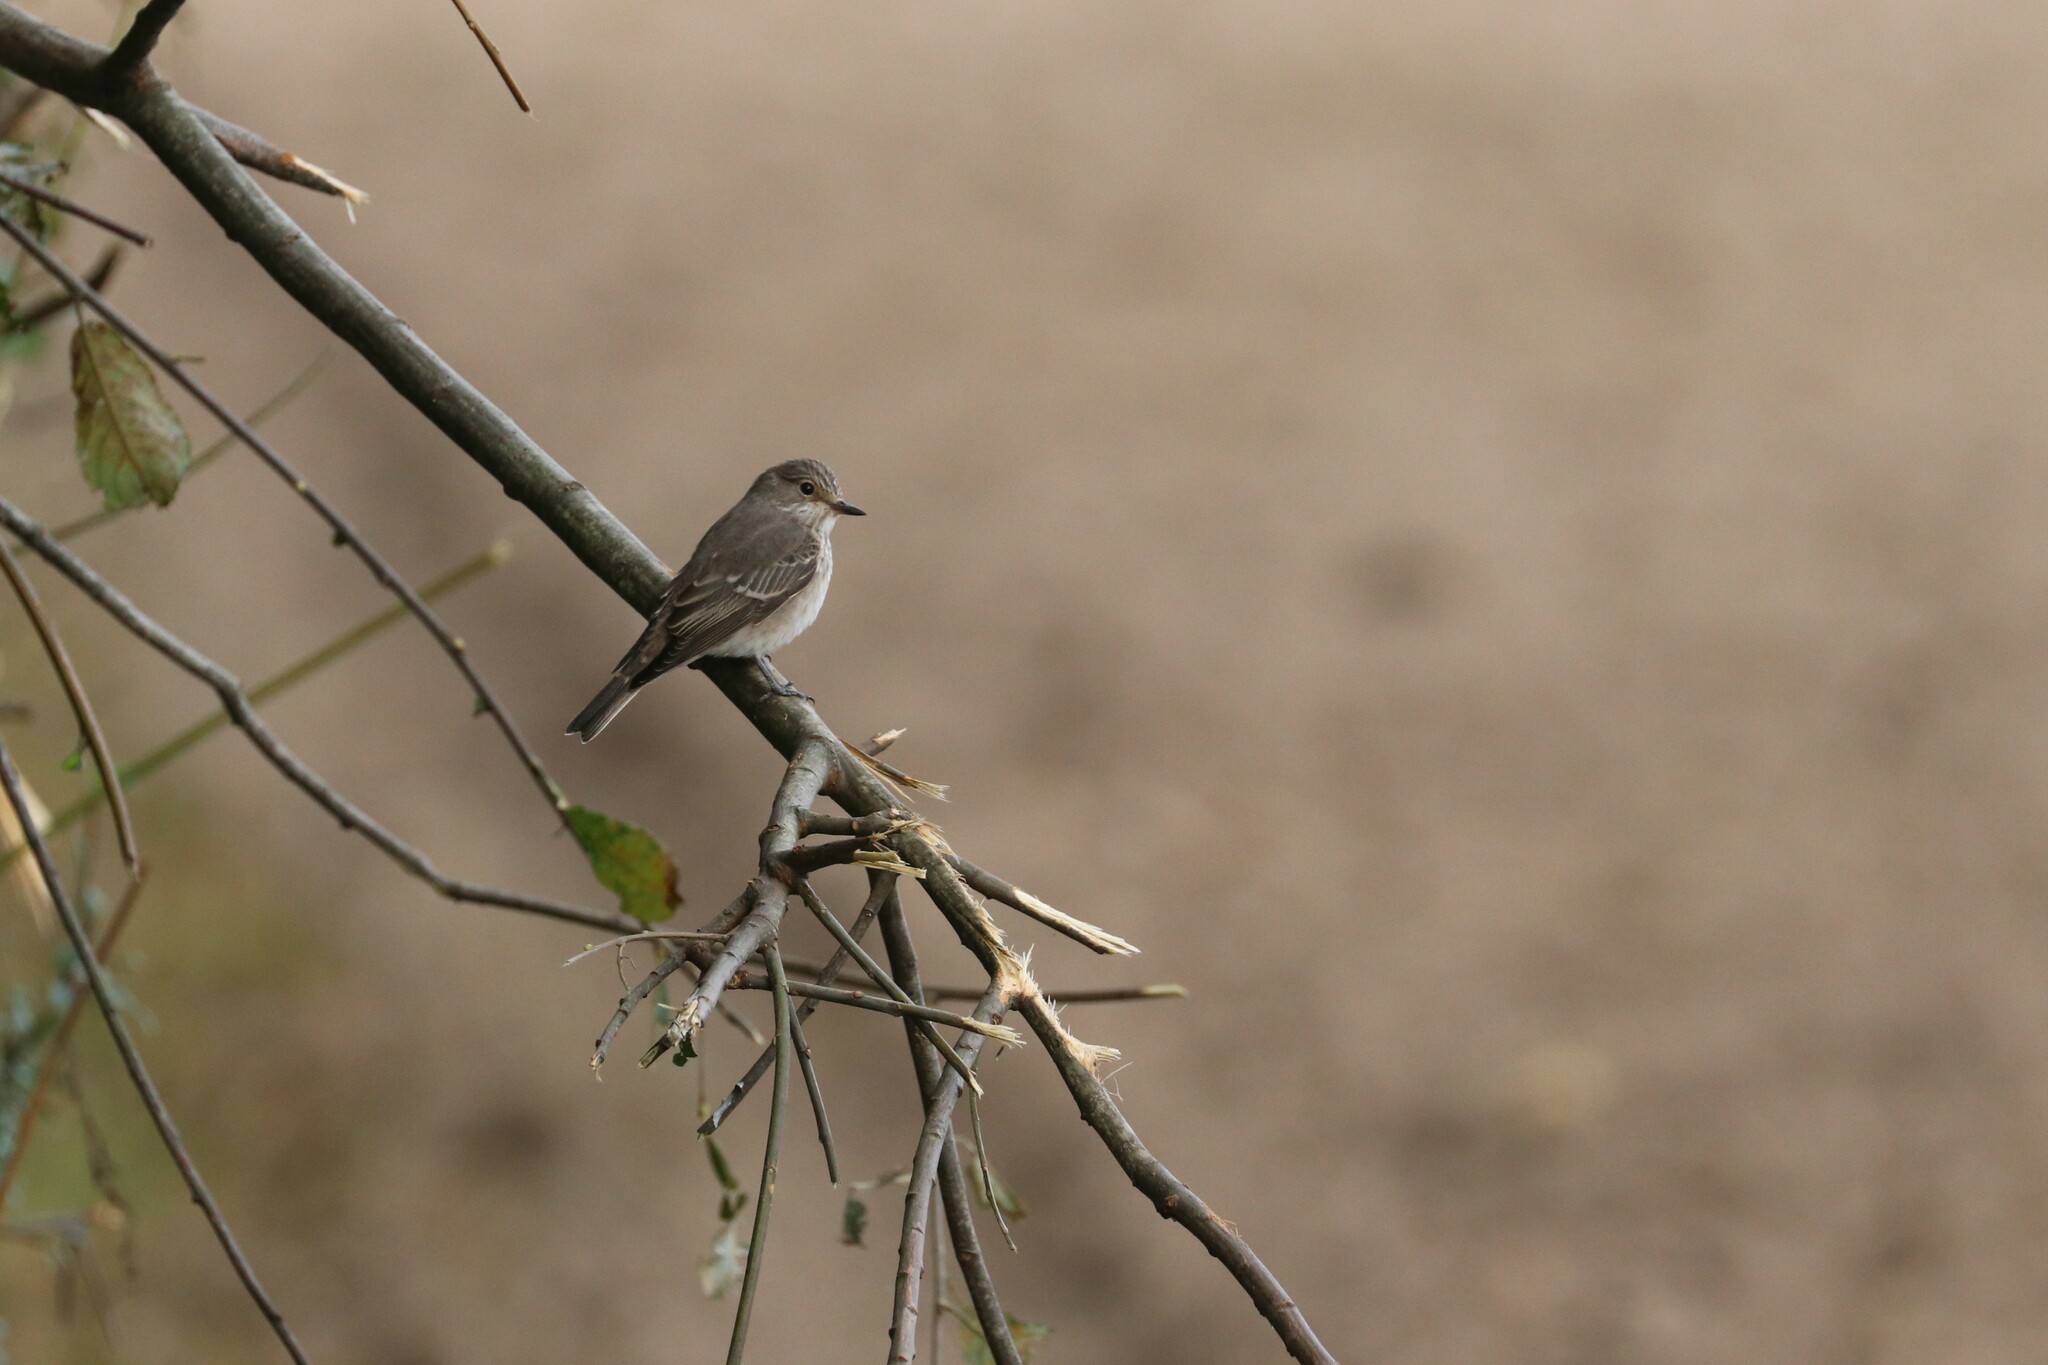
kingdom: Animalia
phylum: Chordata
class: Aves
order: Passeriformes
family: Muscicapidae
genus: Muscicapa
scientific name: Muscicapa striata
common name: Spotted flycatcher
